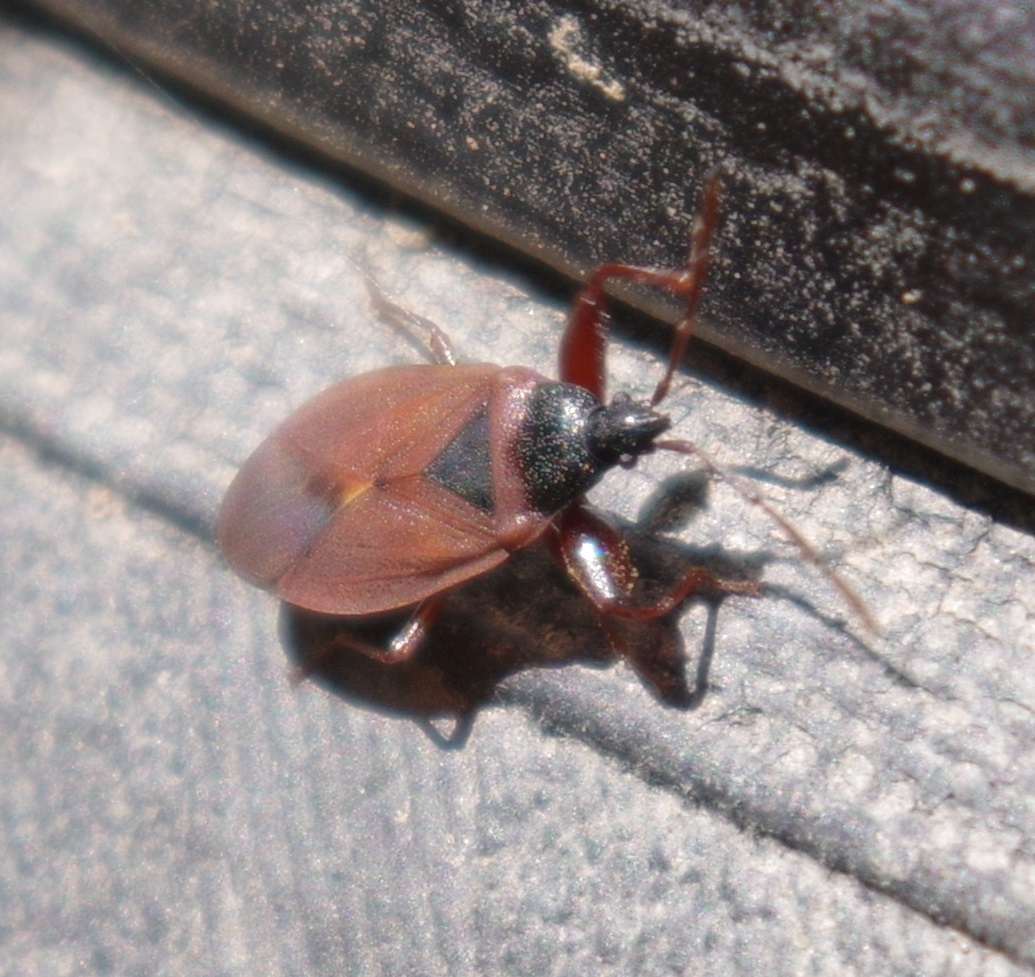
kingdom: Animalia
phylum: Arthropoda
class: Insecta
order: Hemiptera
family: Rhyparochromidae
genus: Gastrodes
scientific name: Gastrodes grossipes
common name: Pine cone bug
